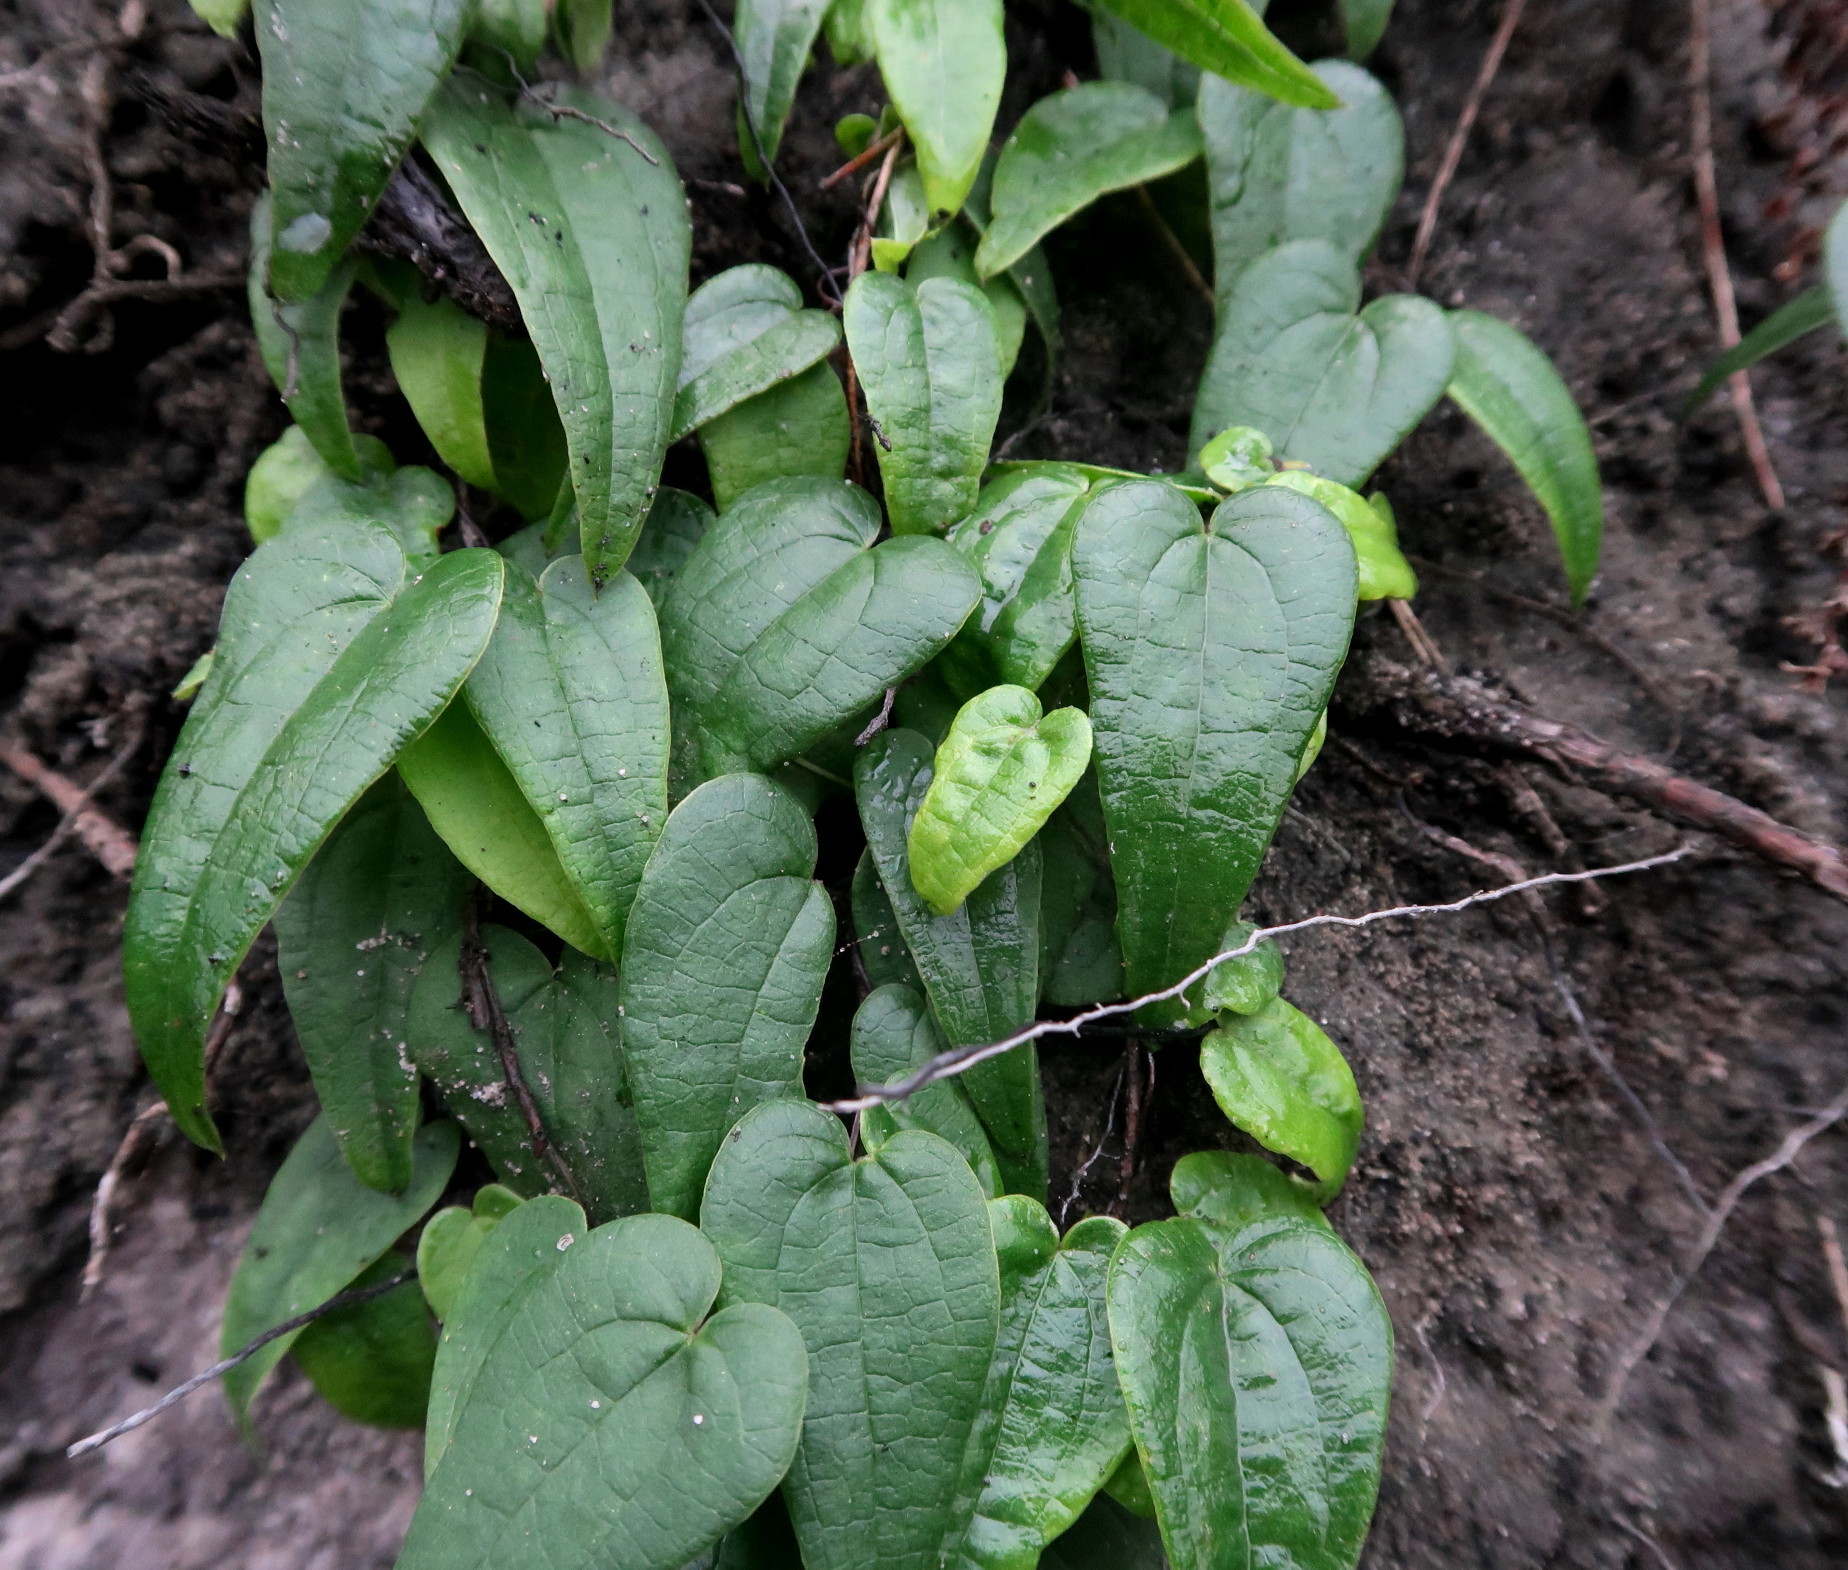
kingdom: Plantae
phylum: Tracheophyta
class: Liliopsida
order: Dioscoreales
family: Dioscoreaceae
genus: Dioscorea
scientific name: Dioscorea burchellii
